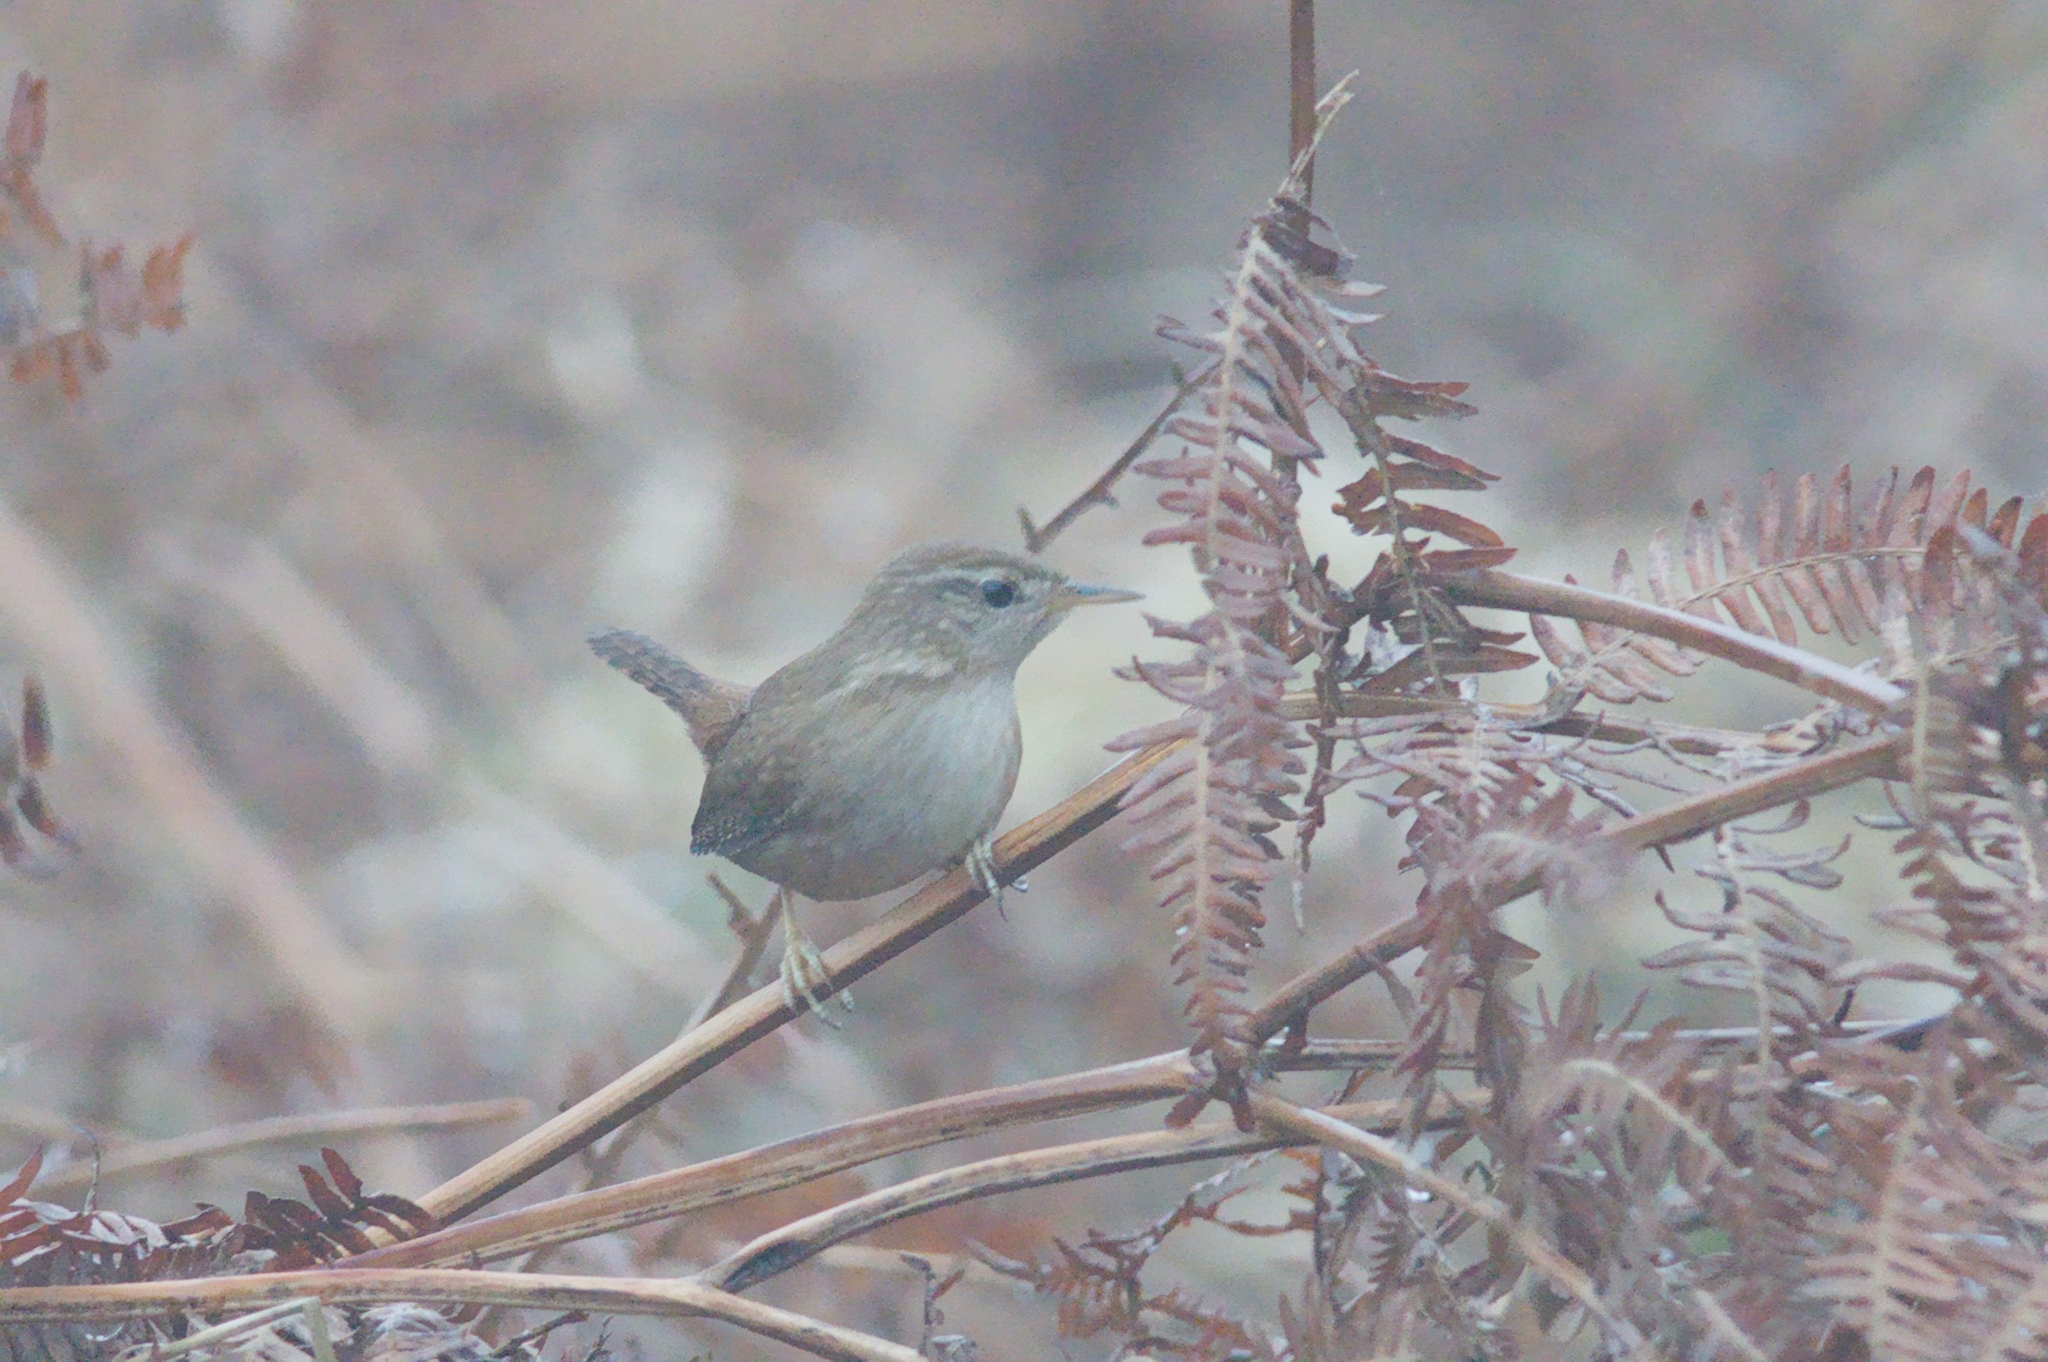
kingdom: Animalia
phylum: Chordata
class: Aves
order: Passeriformes
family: Troglodytidae
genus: Troglodytes
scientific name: Troglodytes troglodytes
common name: Eurasian wren
